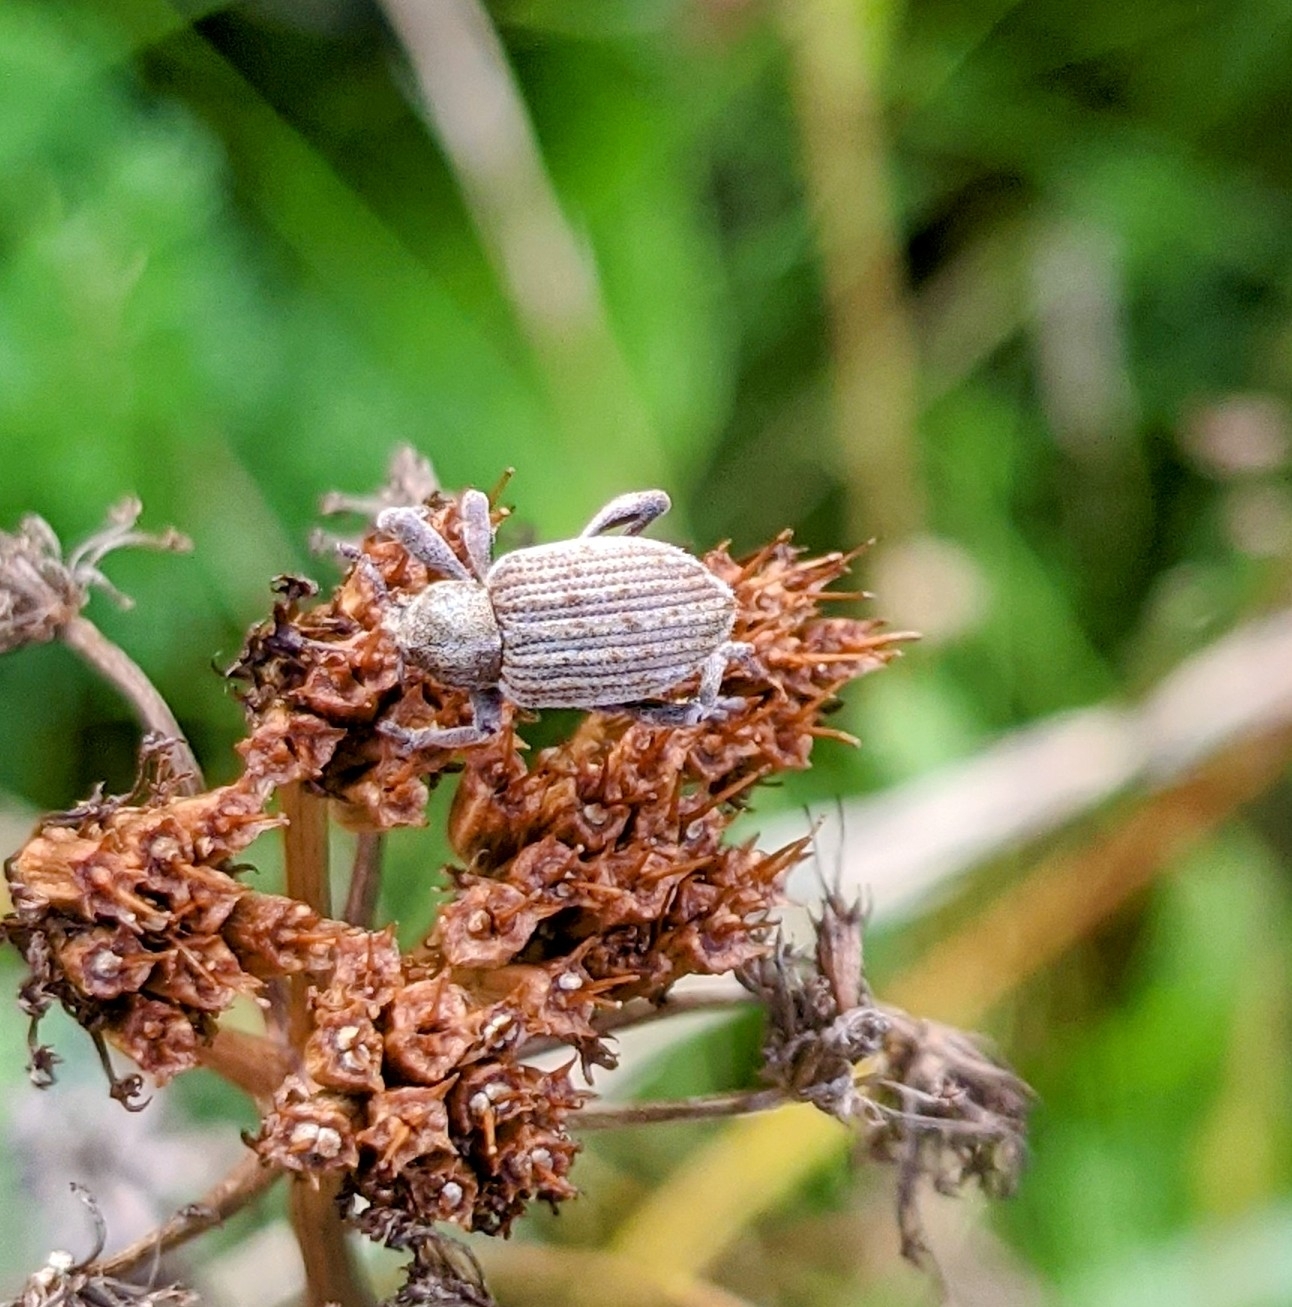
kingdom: Animalia
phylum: Arthropoda
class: Insecta
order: Coleoptera
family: Curculionidae
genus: Brachypera
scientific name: Brachypera zoilus
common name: Clover leaf weevil
